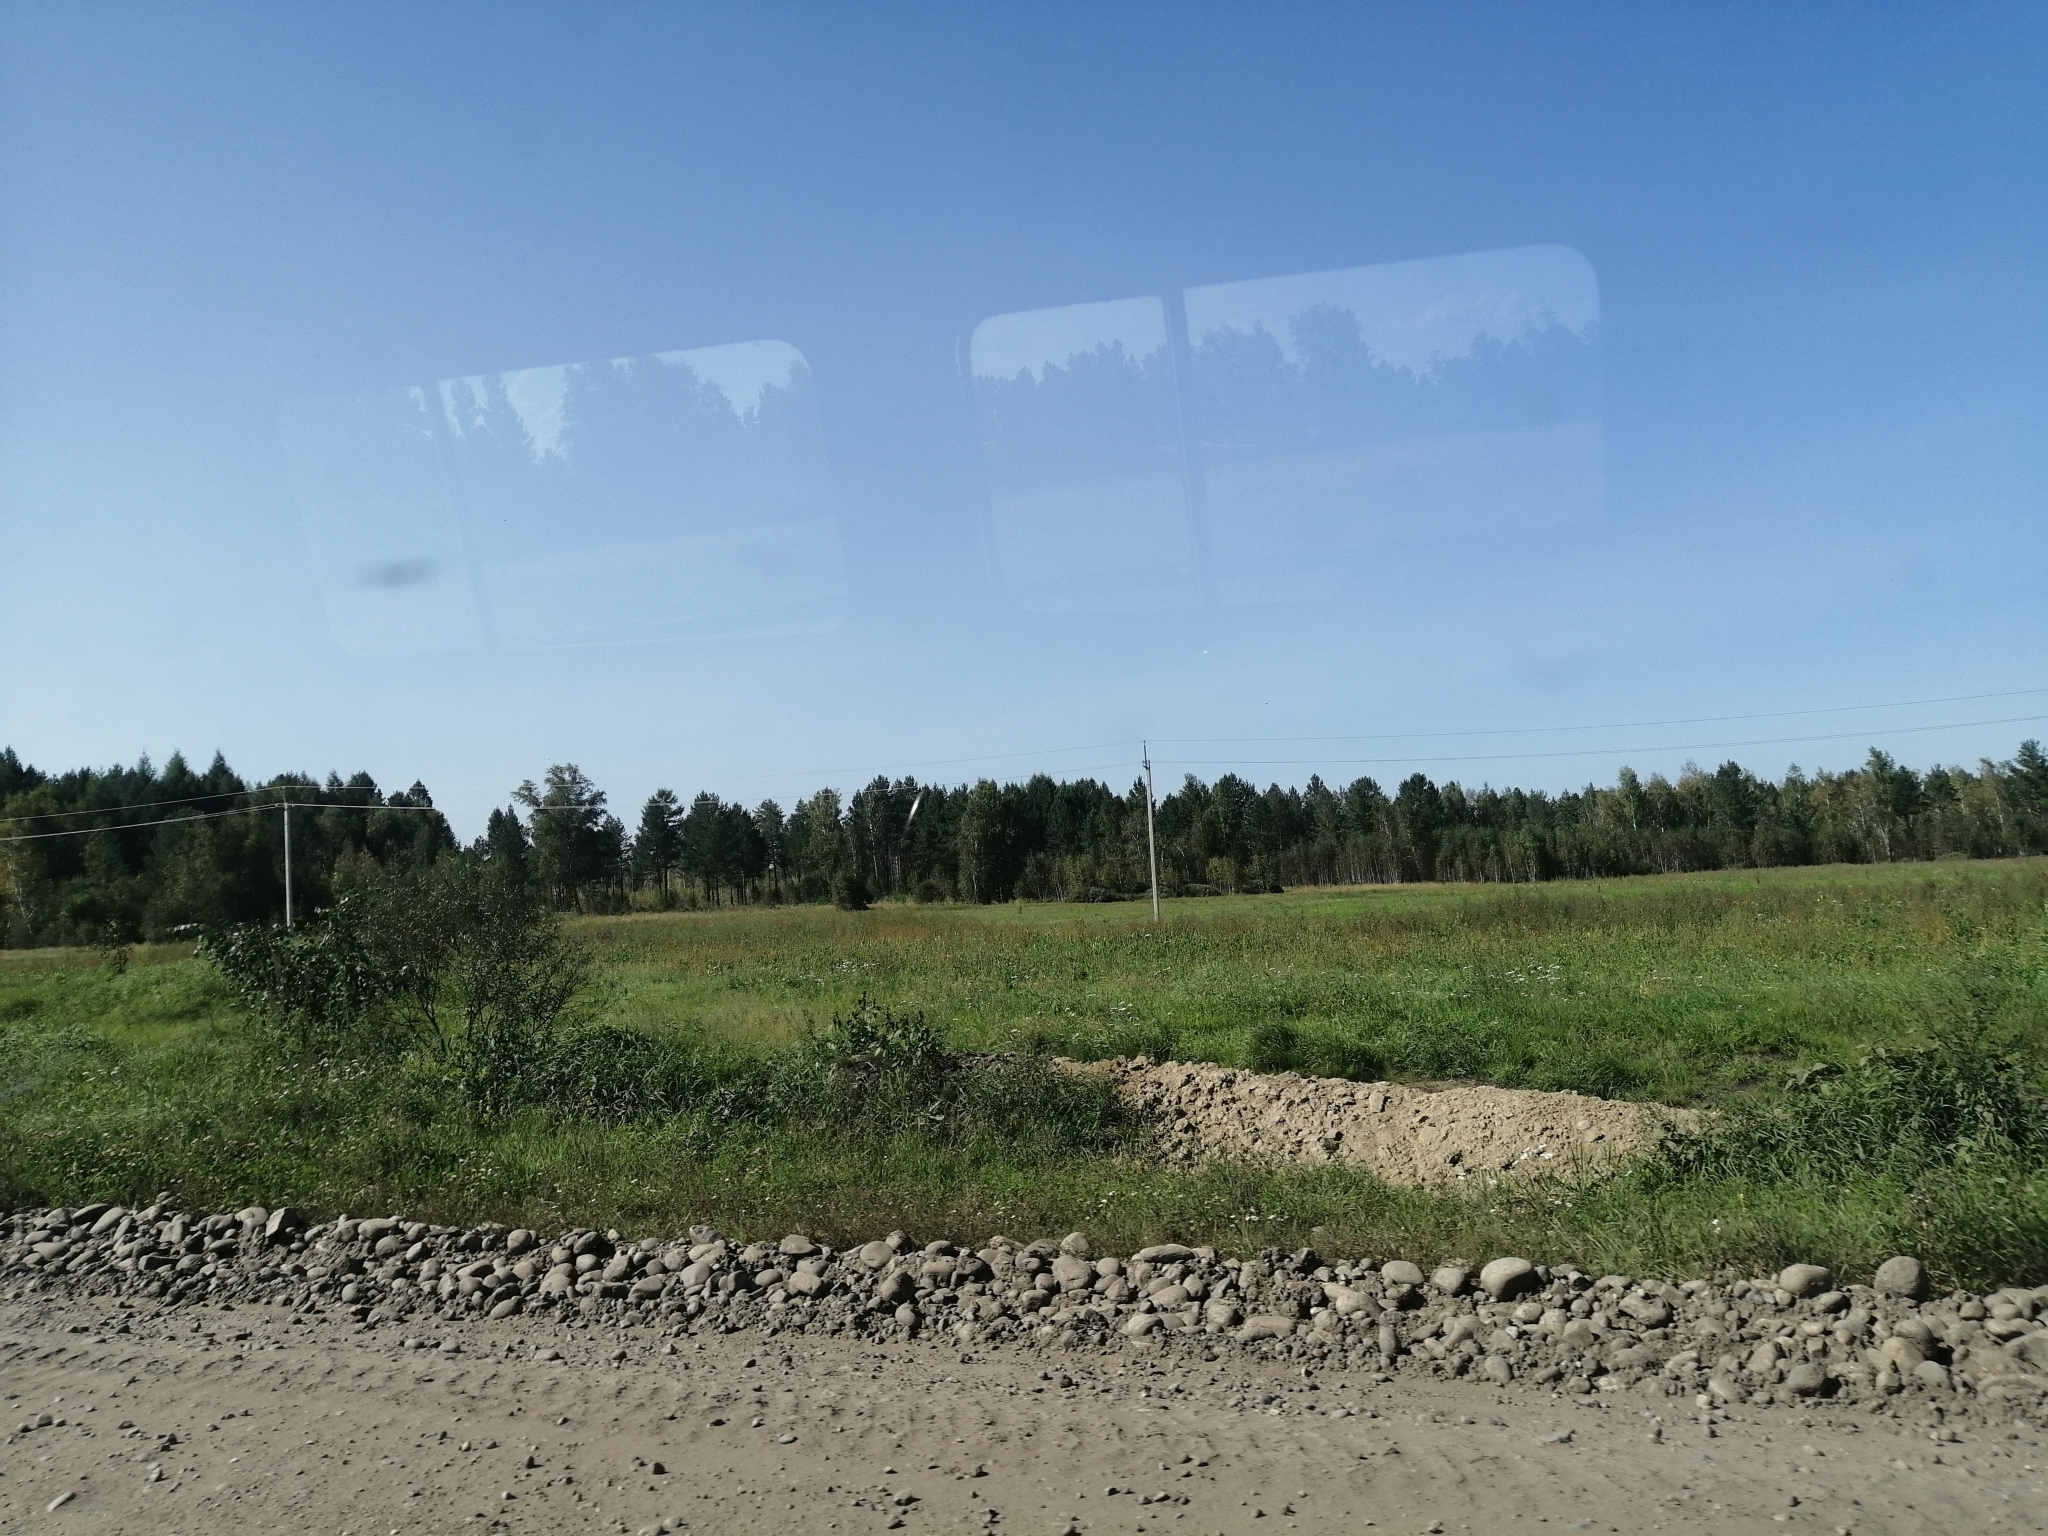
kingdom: Plantae
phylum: Tracheophyta
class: Pinopsida
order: Pinales
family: Pinaceae
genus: Pinus
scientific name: Pinus sylvestris
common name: Scots pine
